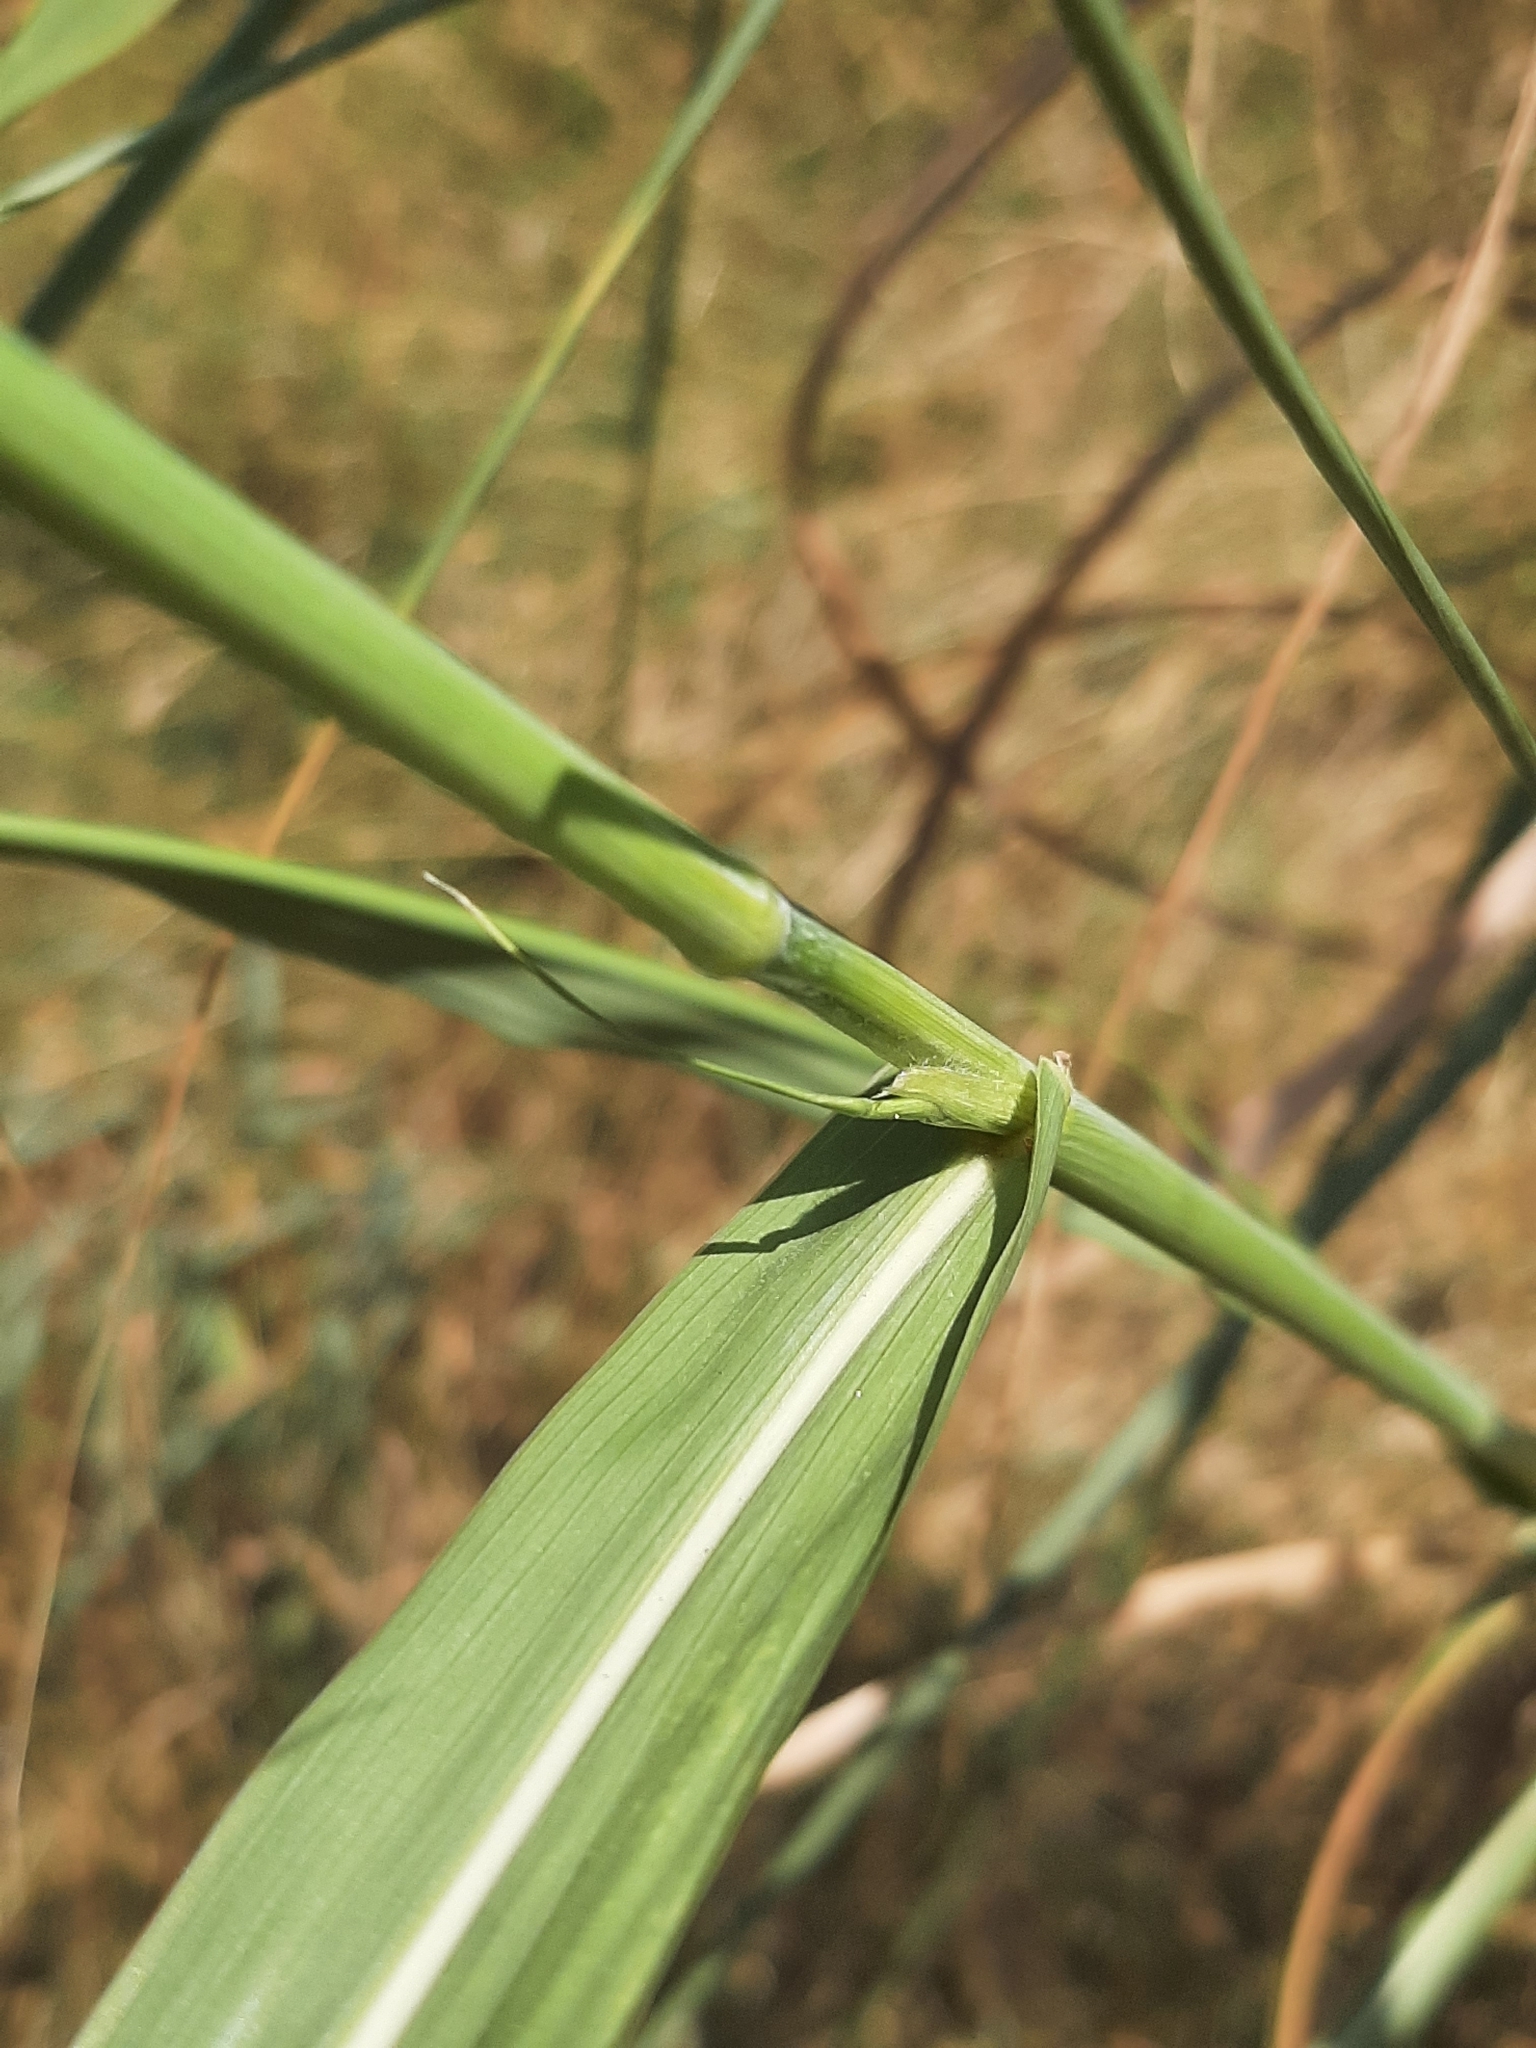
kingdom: Plantae
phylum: Tracheophyta
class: Liliopsida
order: Poales
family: Poaceae
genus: Sorghum
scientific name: Sorghum halepense
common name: Johnson-grass
